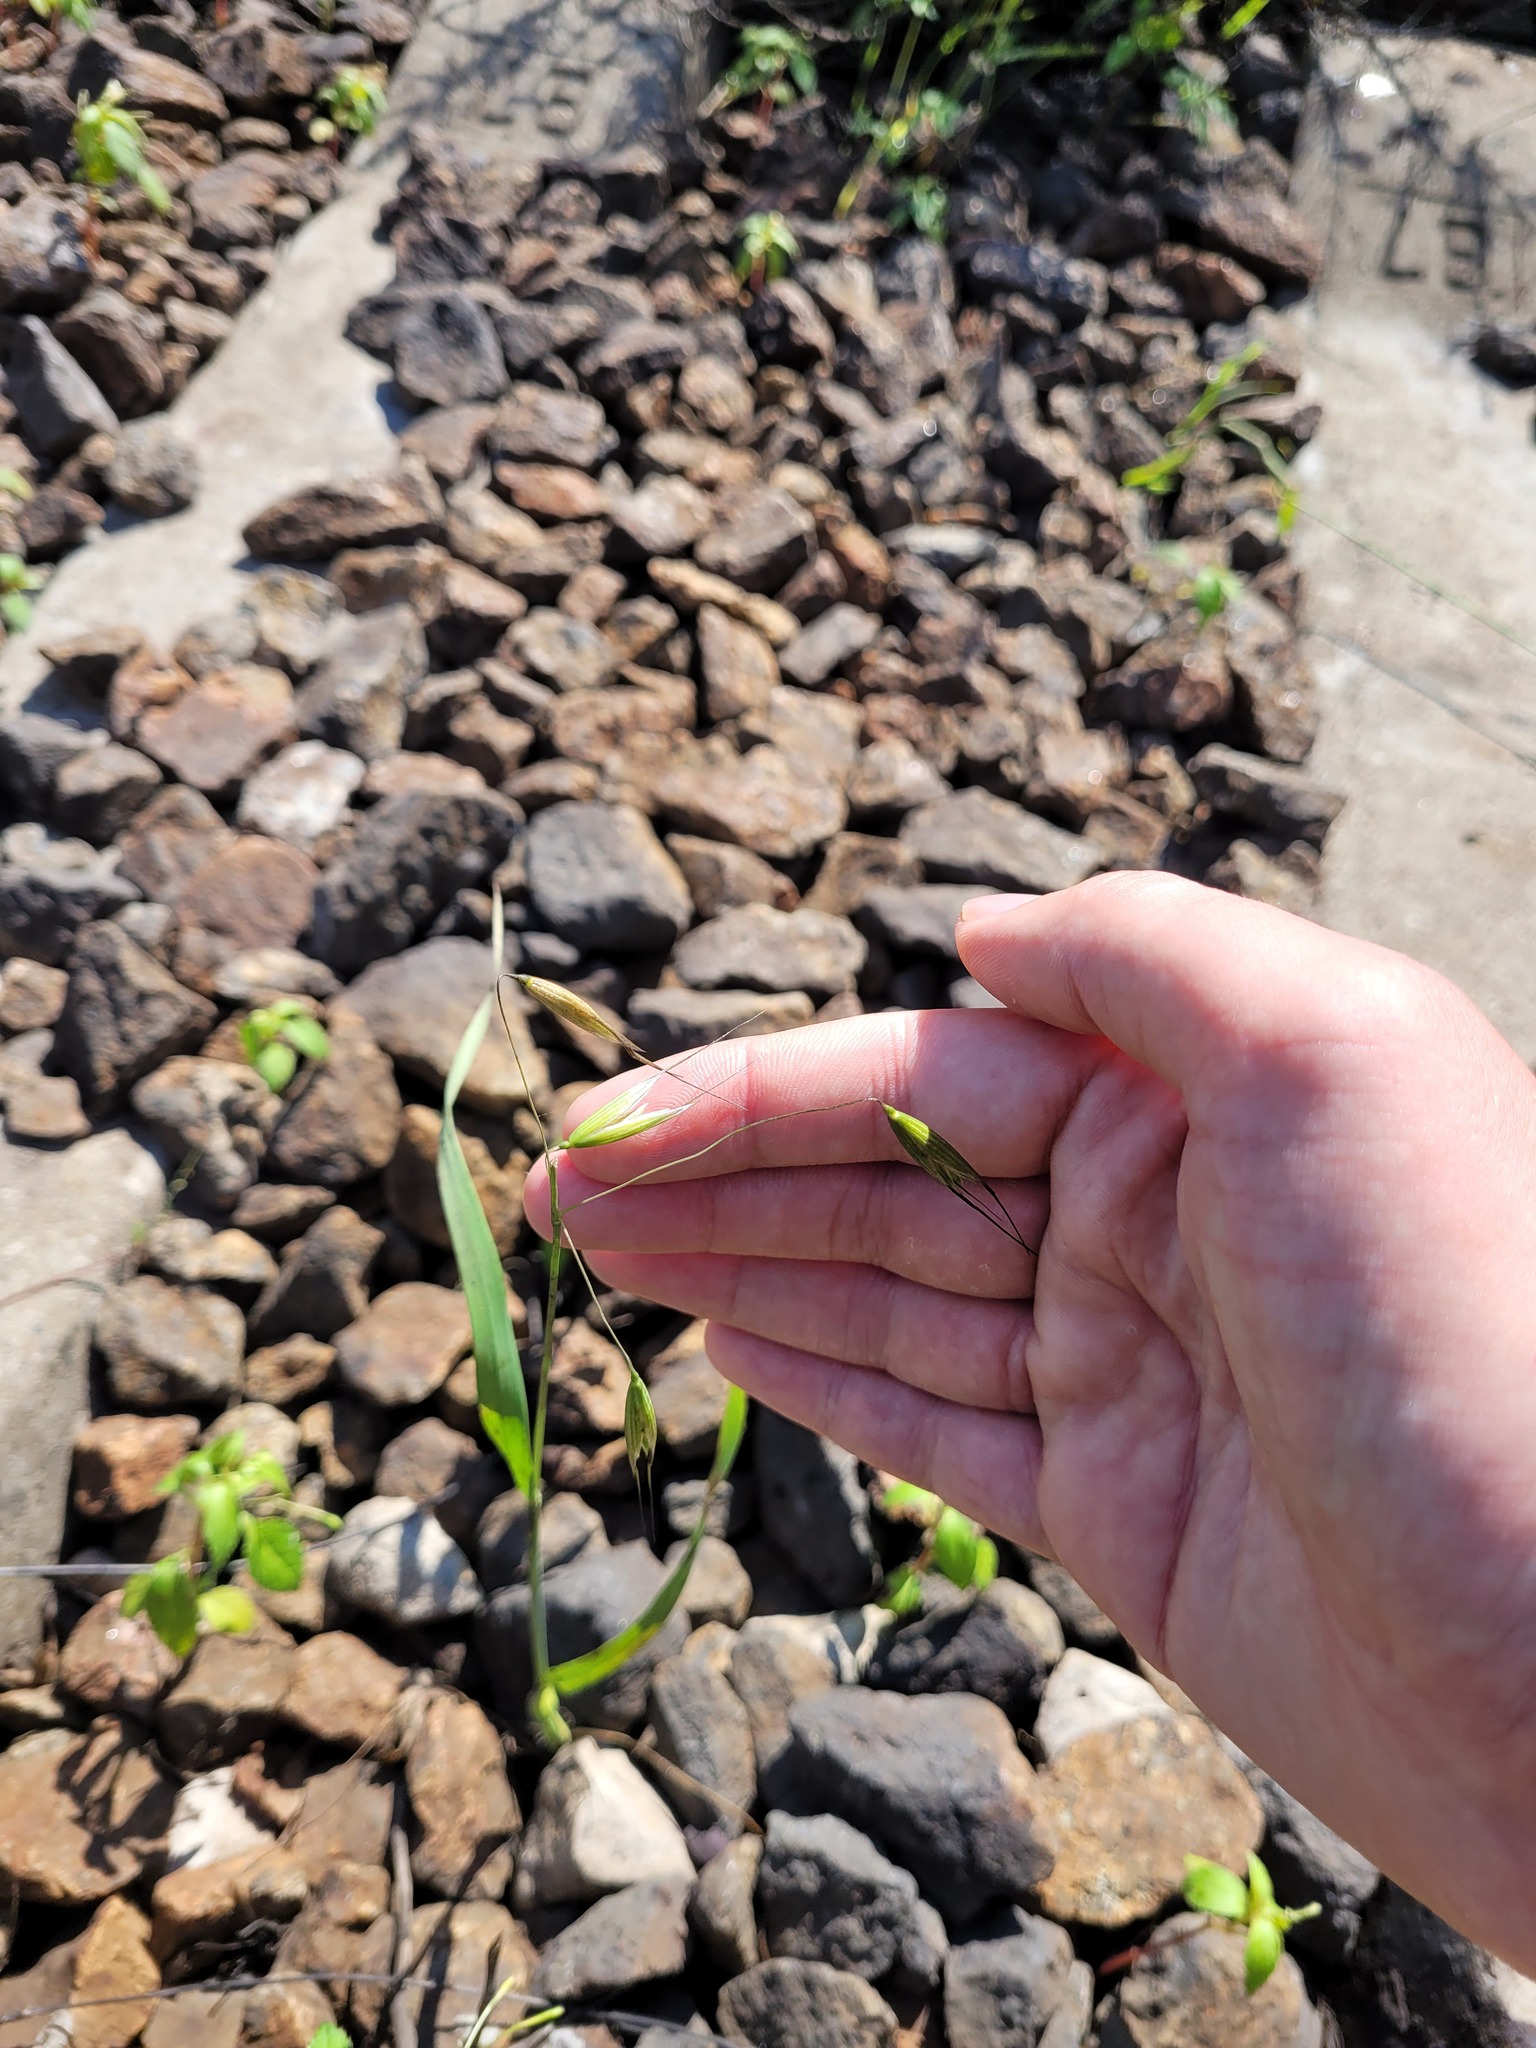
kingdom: Plantae
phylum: Tracheophyta
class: Liliopsida
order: Poales
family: Poaceae
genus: Avena
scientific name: Avena fatua
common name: Wild oat
